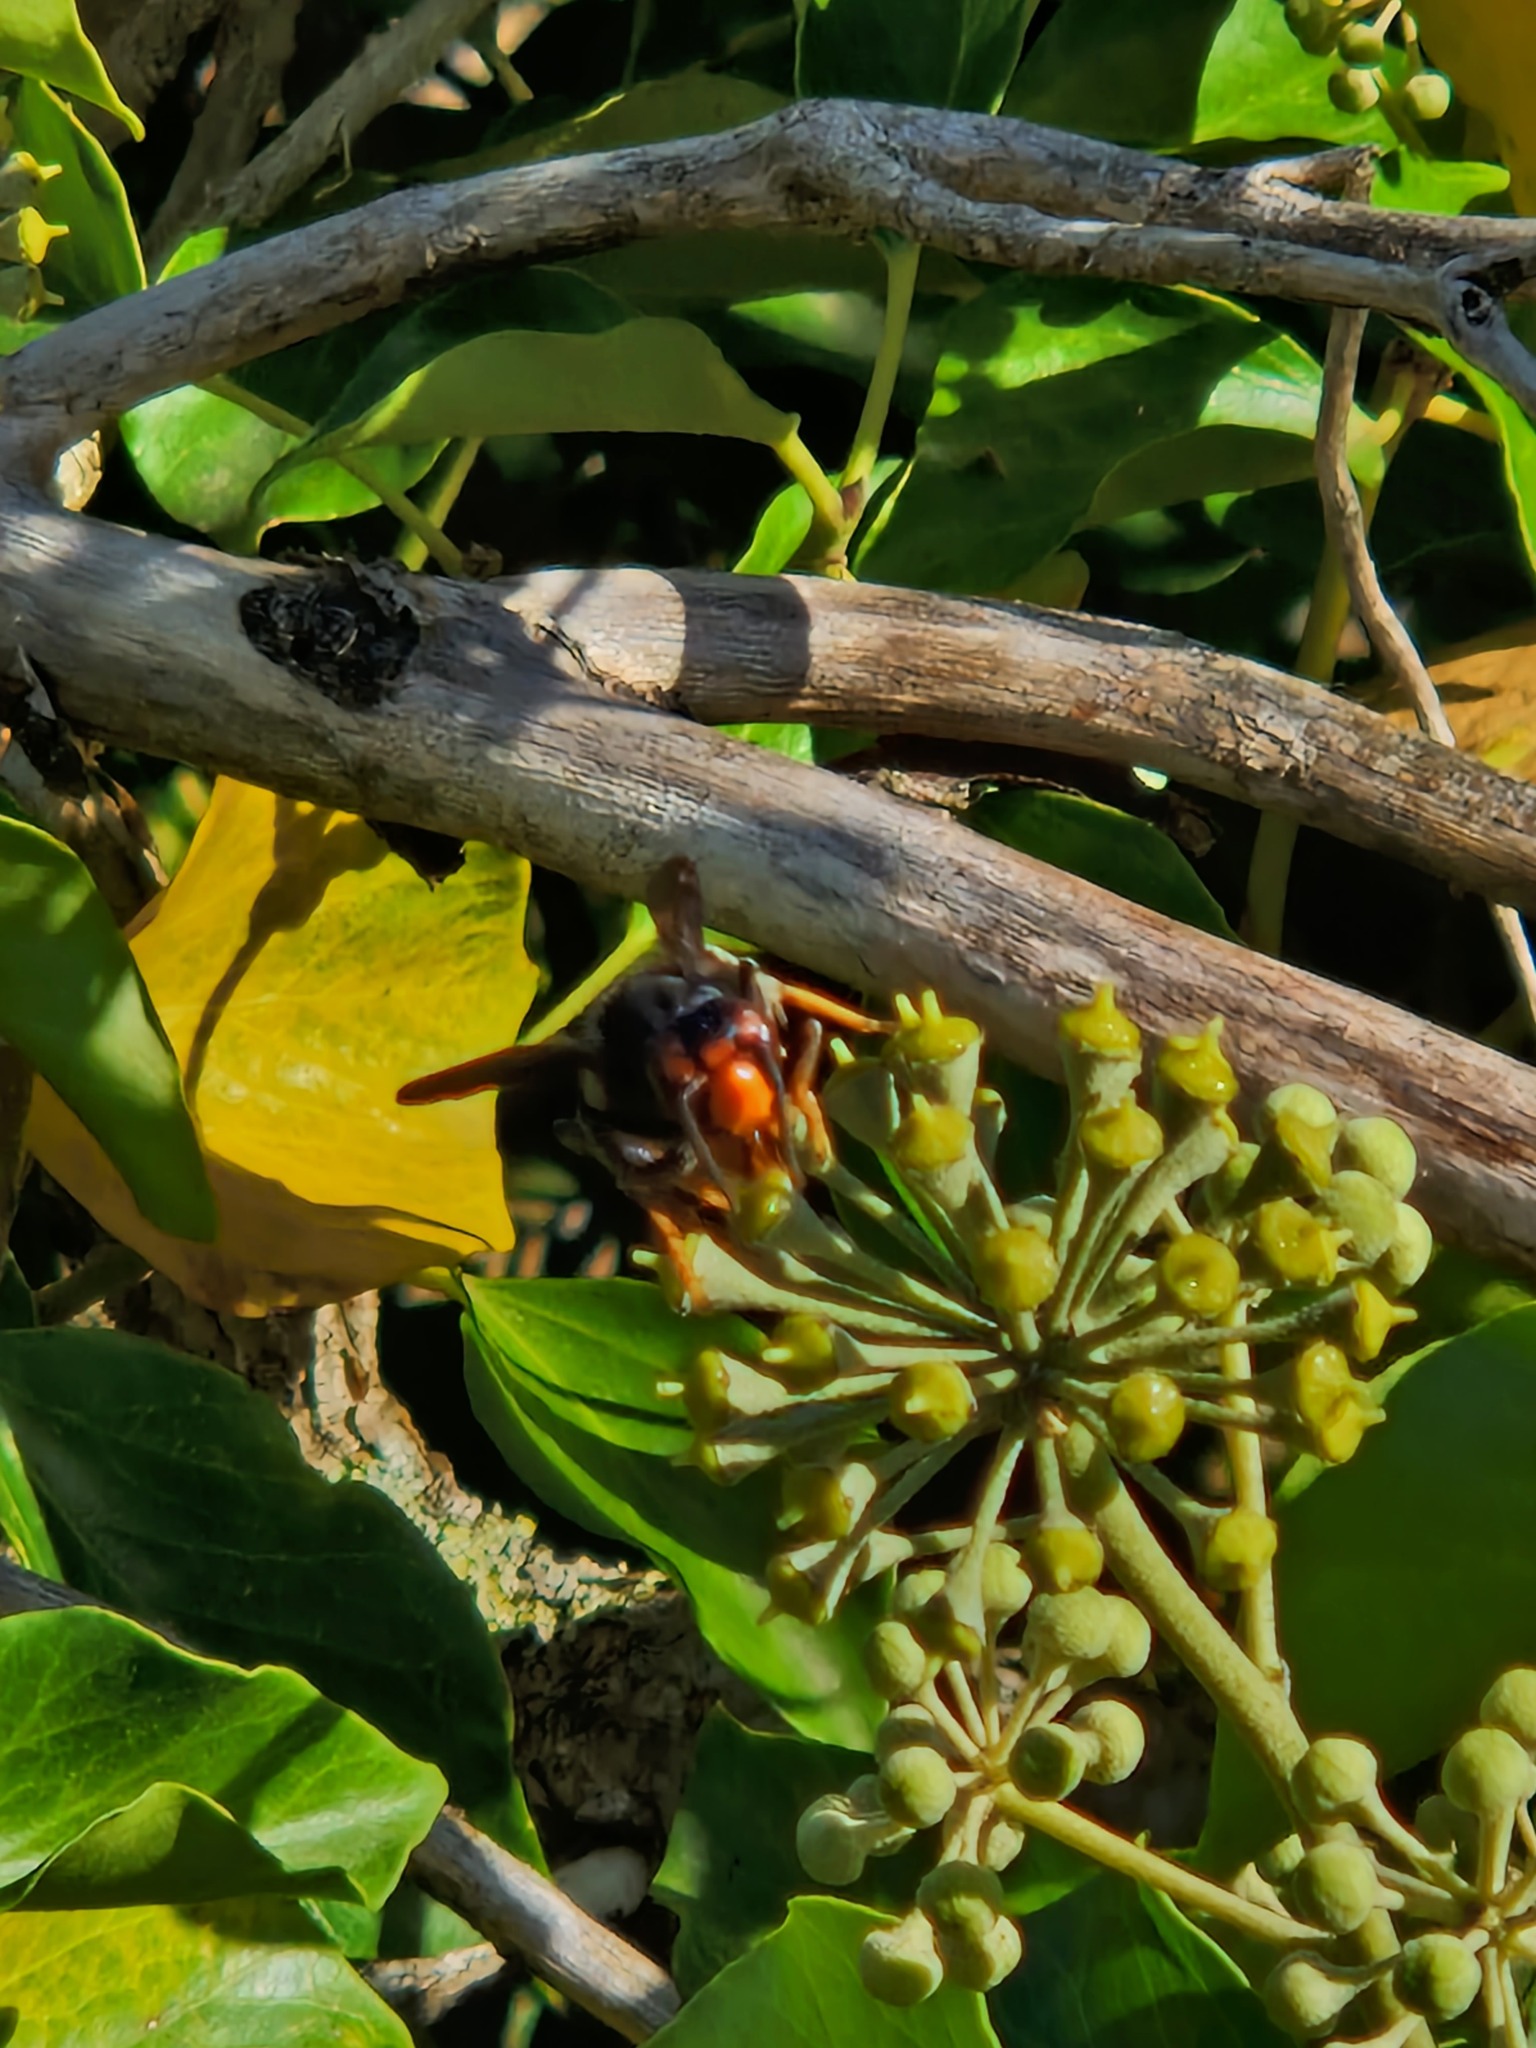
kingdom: Animalia
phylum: Arthropoda
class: Insecta
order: Hymenoptera
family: Vespidae
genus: Vespa
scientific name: Vespa velutina
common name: Asian hornet
